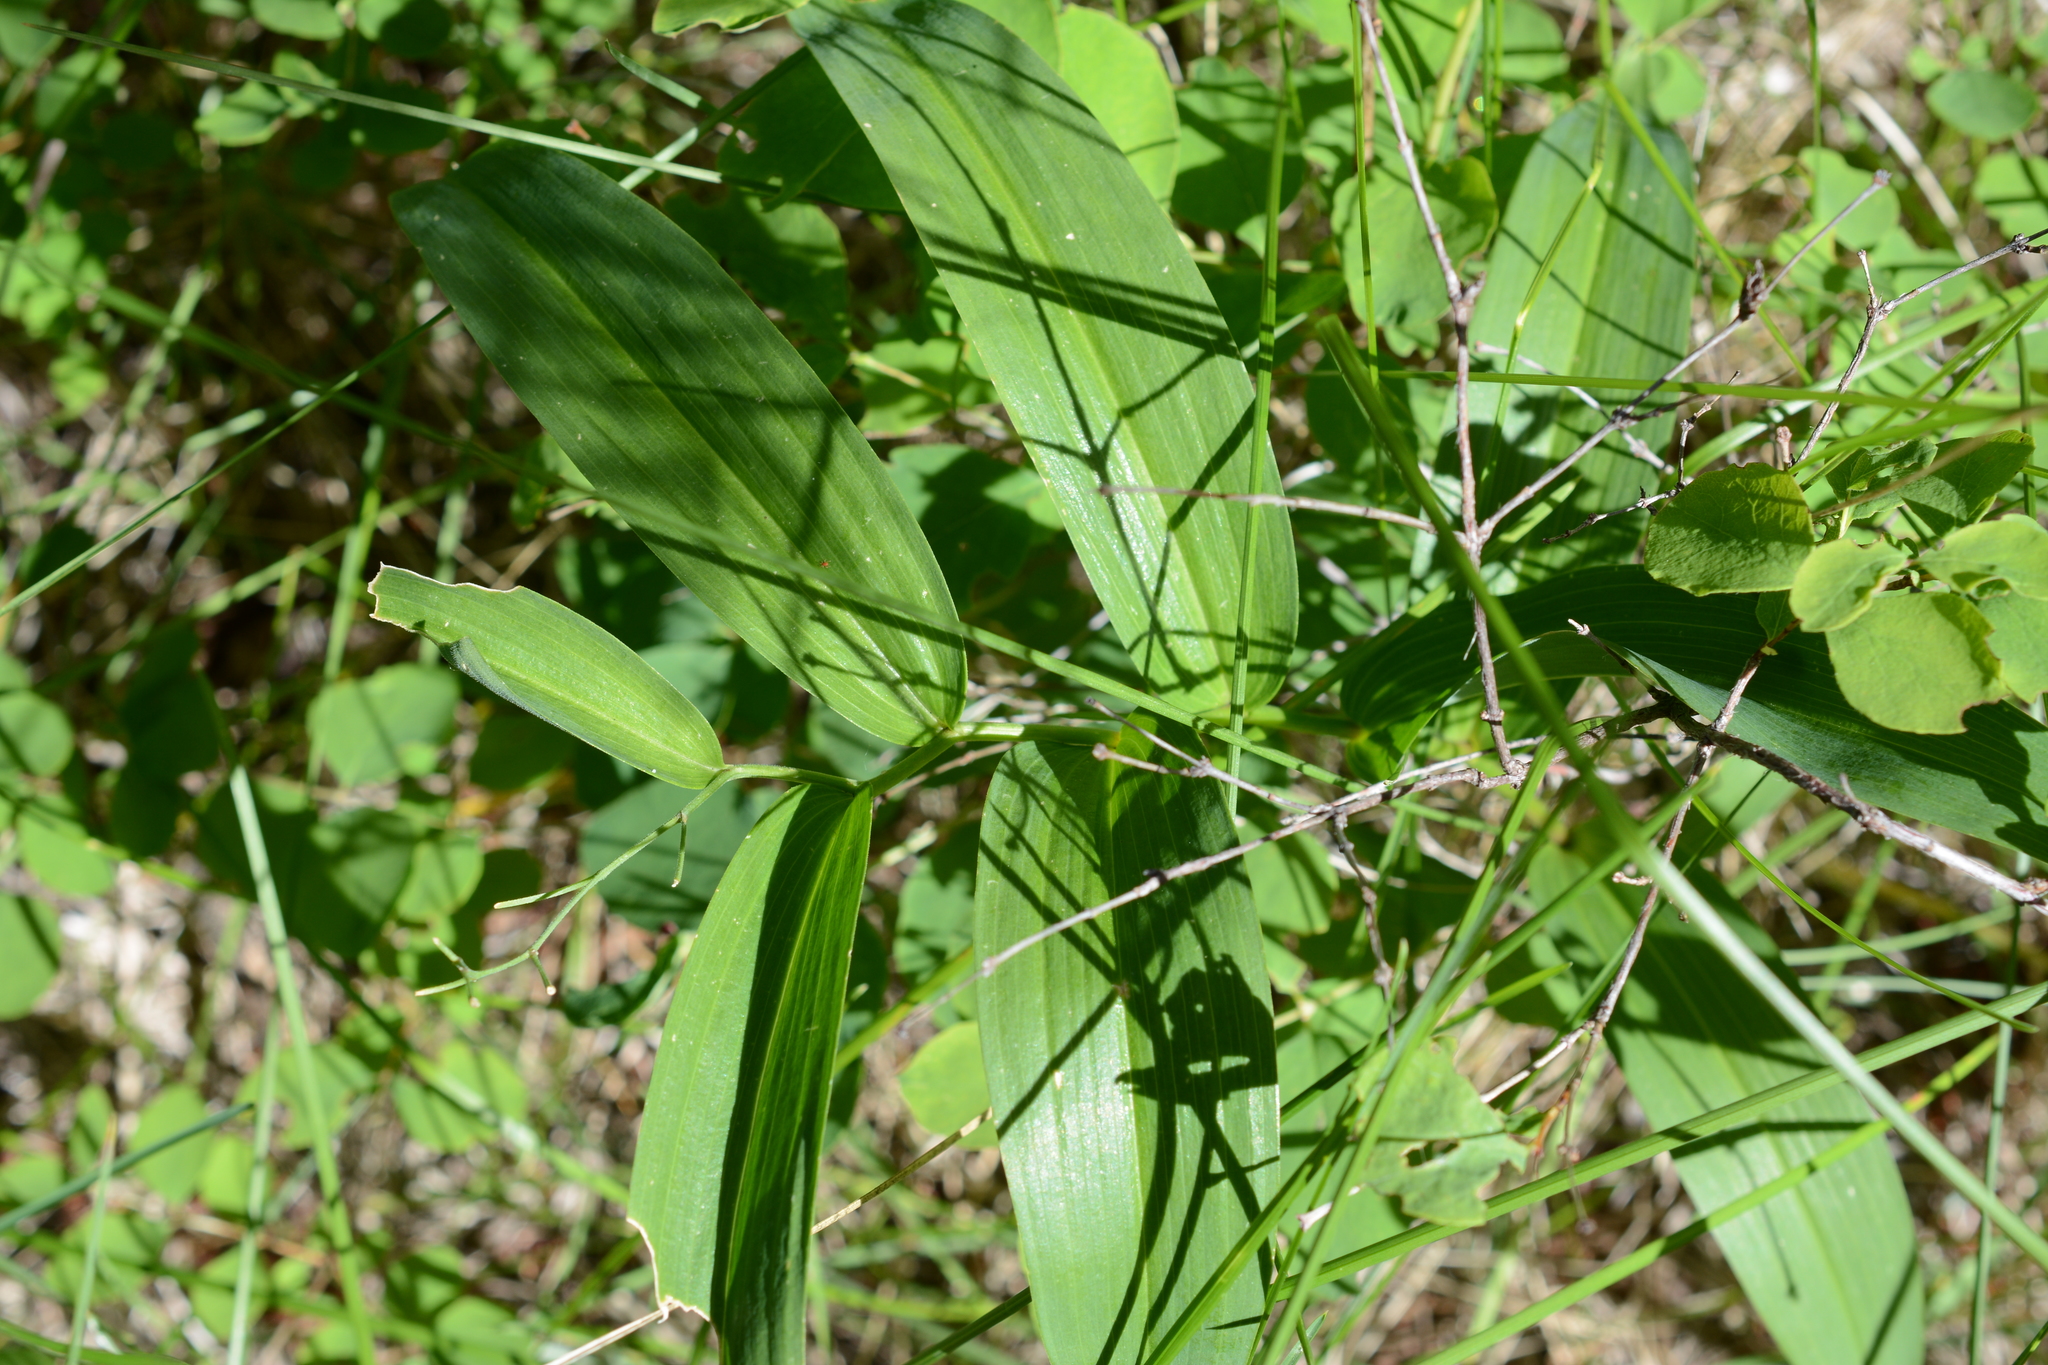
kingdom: Plantae
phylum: Tracheophyta
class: Liliopsida
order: Asparagales
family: Asparagaceae
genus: Maianthemum
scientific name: Maianthemum stellatum
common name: Little false solomon's seal
